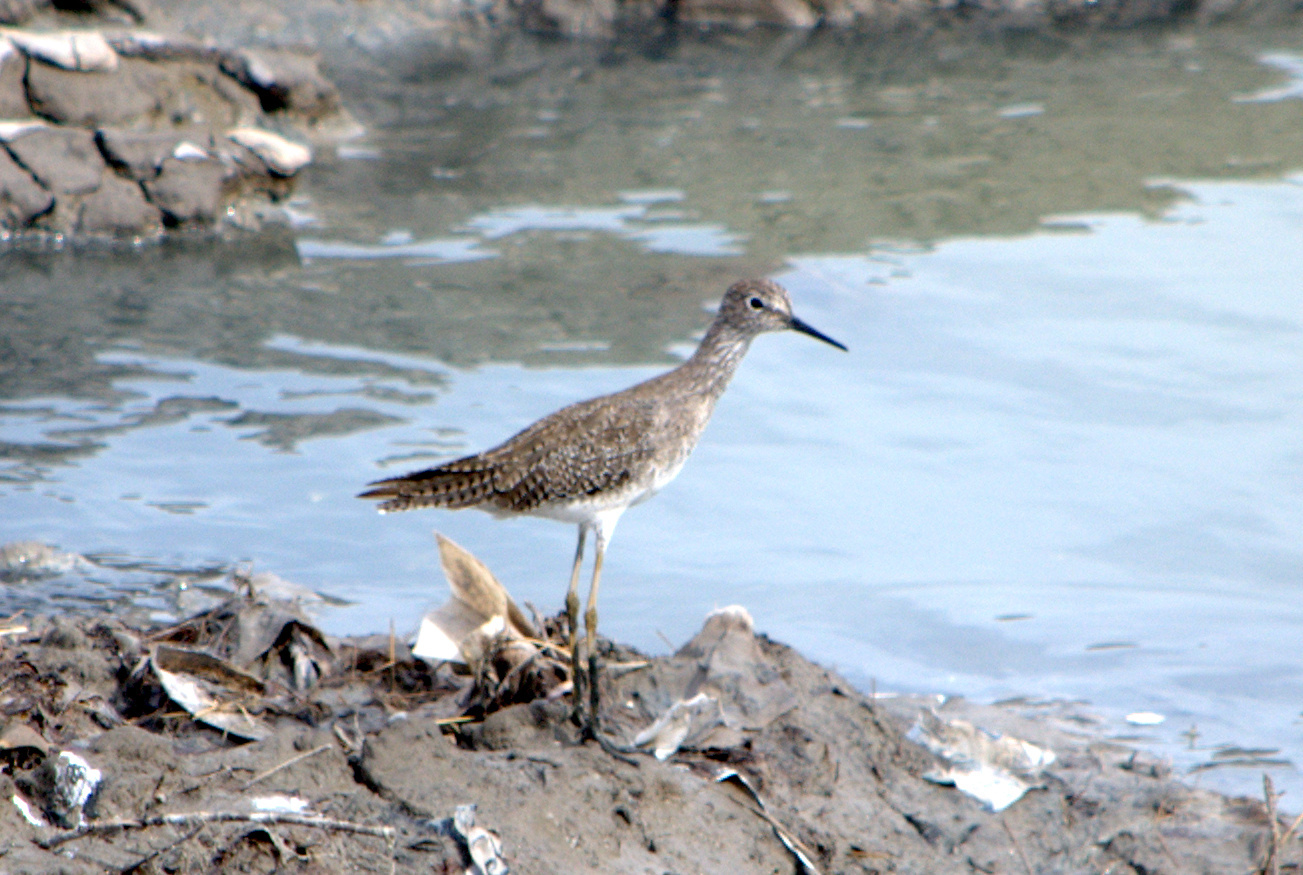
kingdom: Animalia
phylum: Chordata
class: Aves
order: Charadriiformes
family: Scolopacidae
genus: Tringa
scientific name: Tringa flavipes
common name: Lesser yellowlegs
